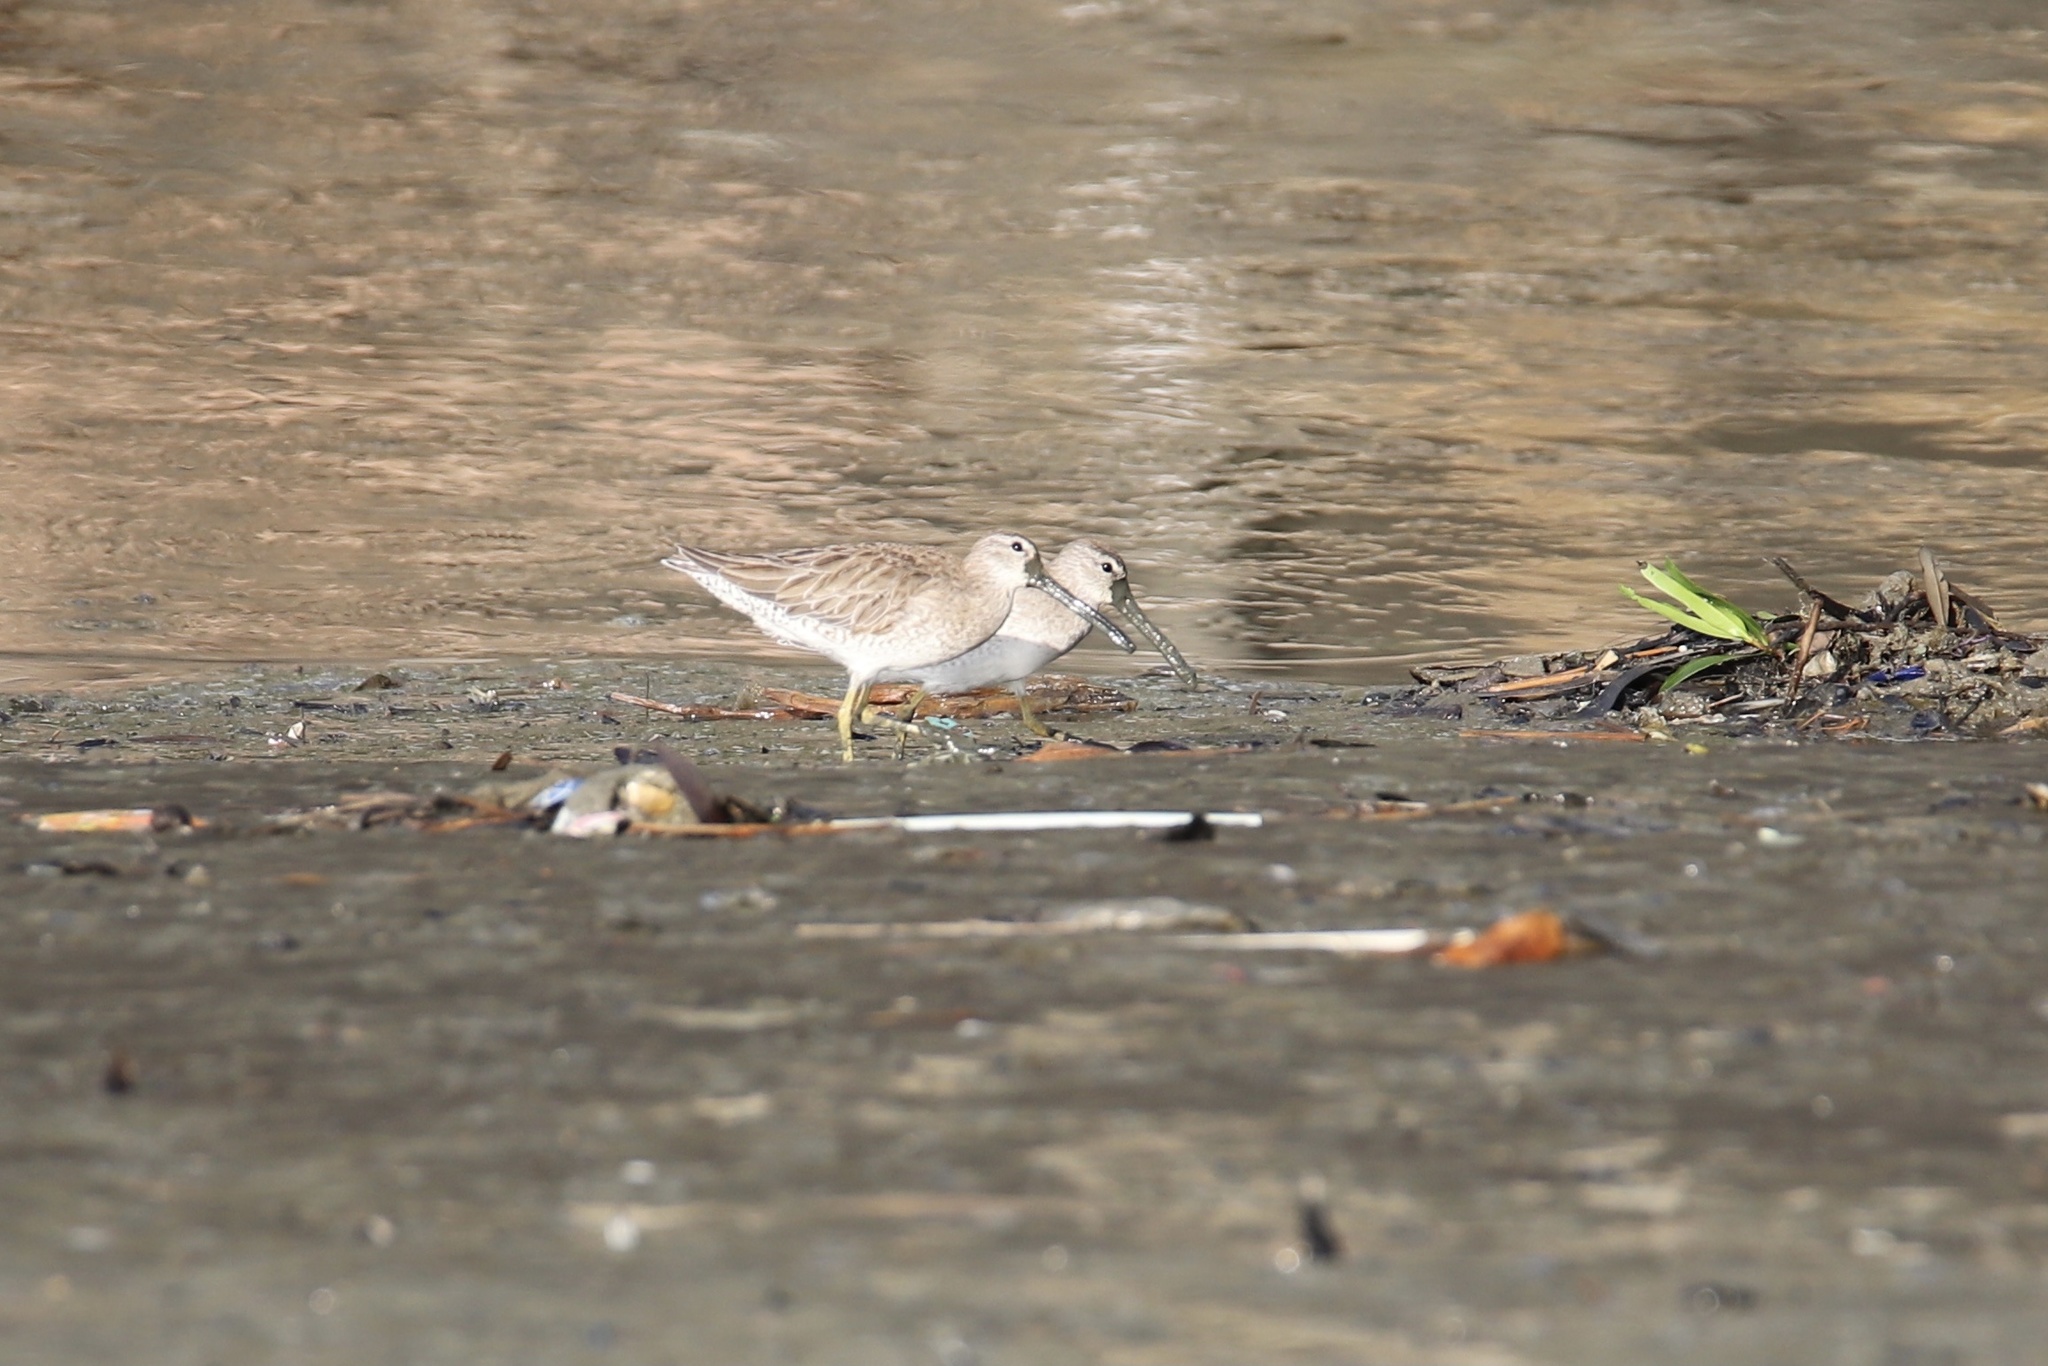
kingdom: Animalia
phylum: Chordata
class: Aves
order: Charadriiformes
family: Scolopacidae
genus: Limnodromus
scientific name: Limnodromus griseus
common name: Short-billed dowitcher
